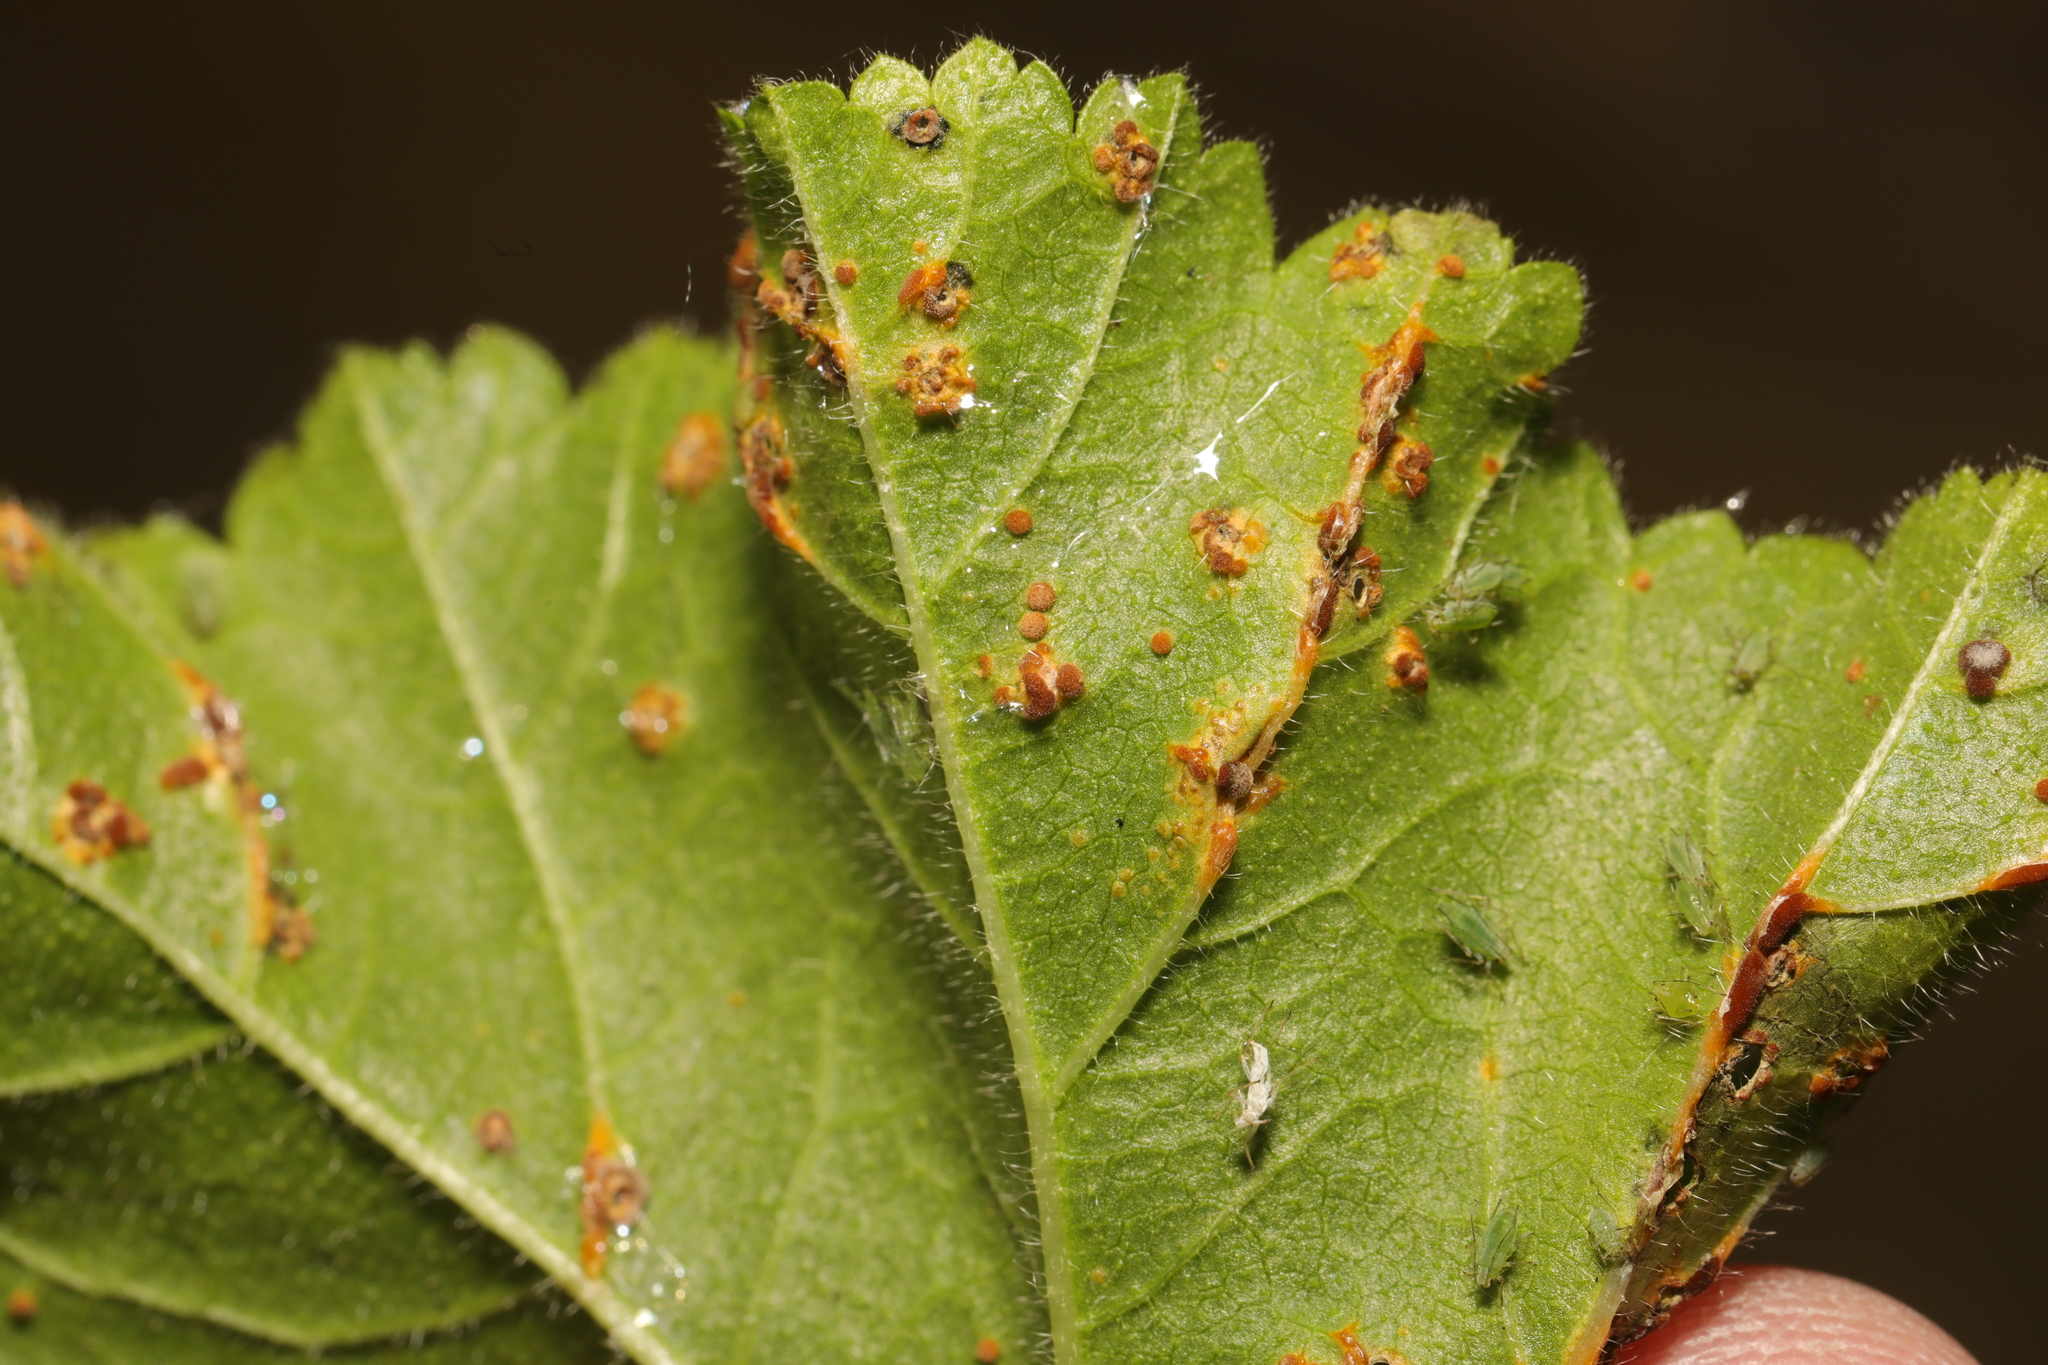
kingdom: Fungi
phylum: Basidiomycota
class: Pucciniomycetes
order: Pucciniales
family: Pucciniaceae
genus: Puccinia
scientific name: Puccinia malvacearum
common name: Hollyhock rust
